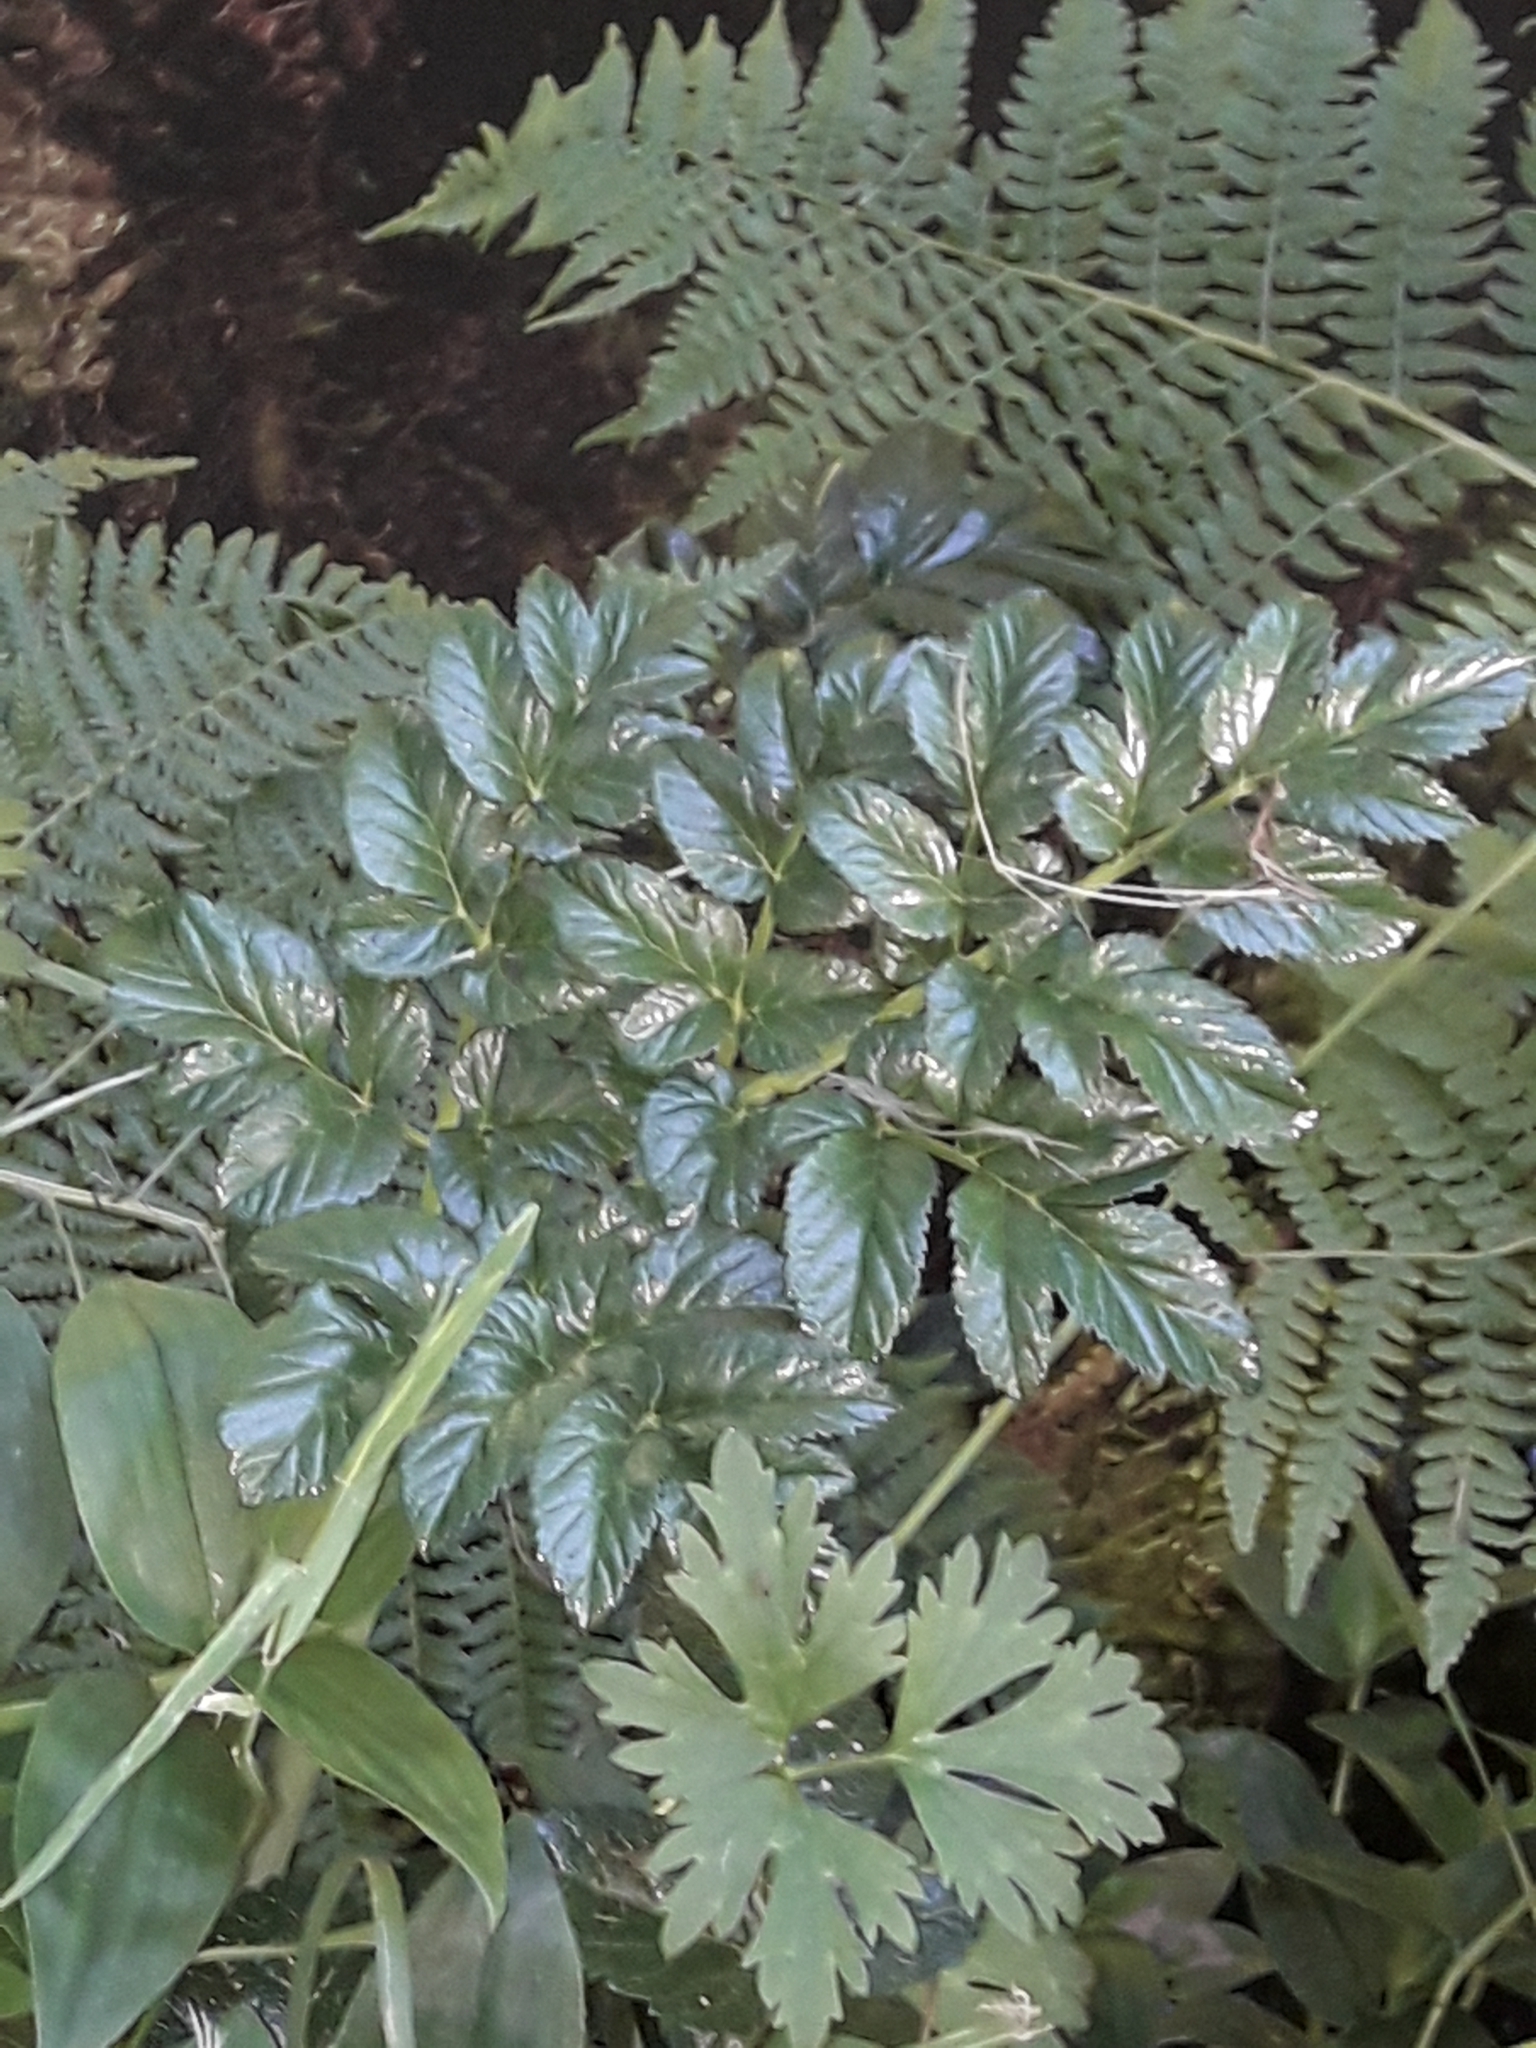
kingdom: Plantae
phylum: Tracheophyta
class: Magnoliopsida
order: Apiales
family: Apiaceae
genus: Angelica
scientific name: Angelica pachycarpa
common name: Portuguese angelica
